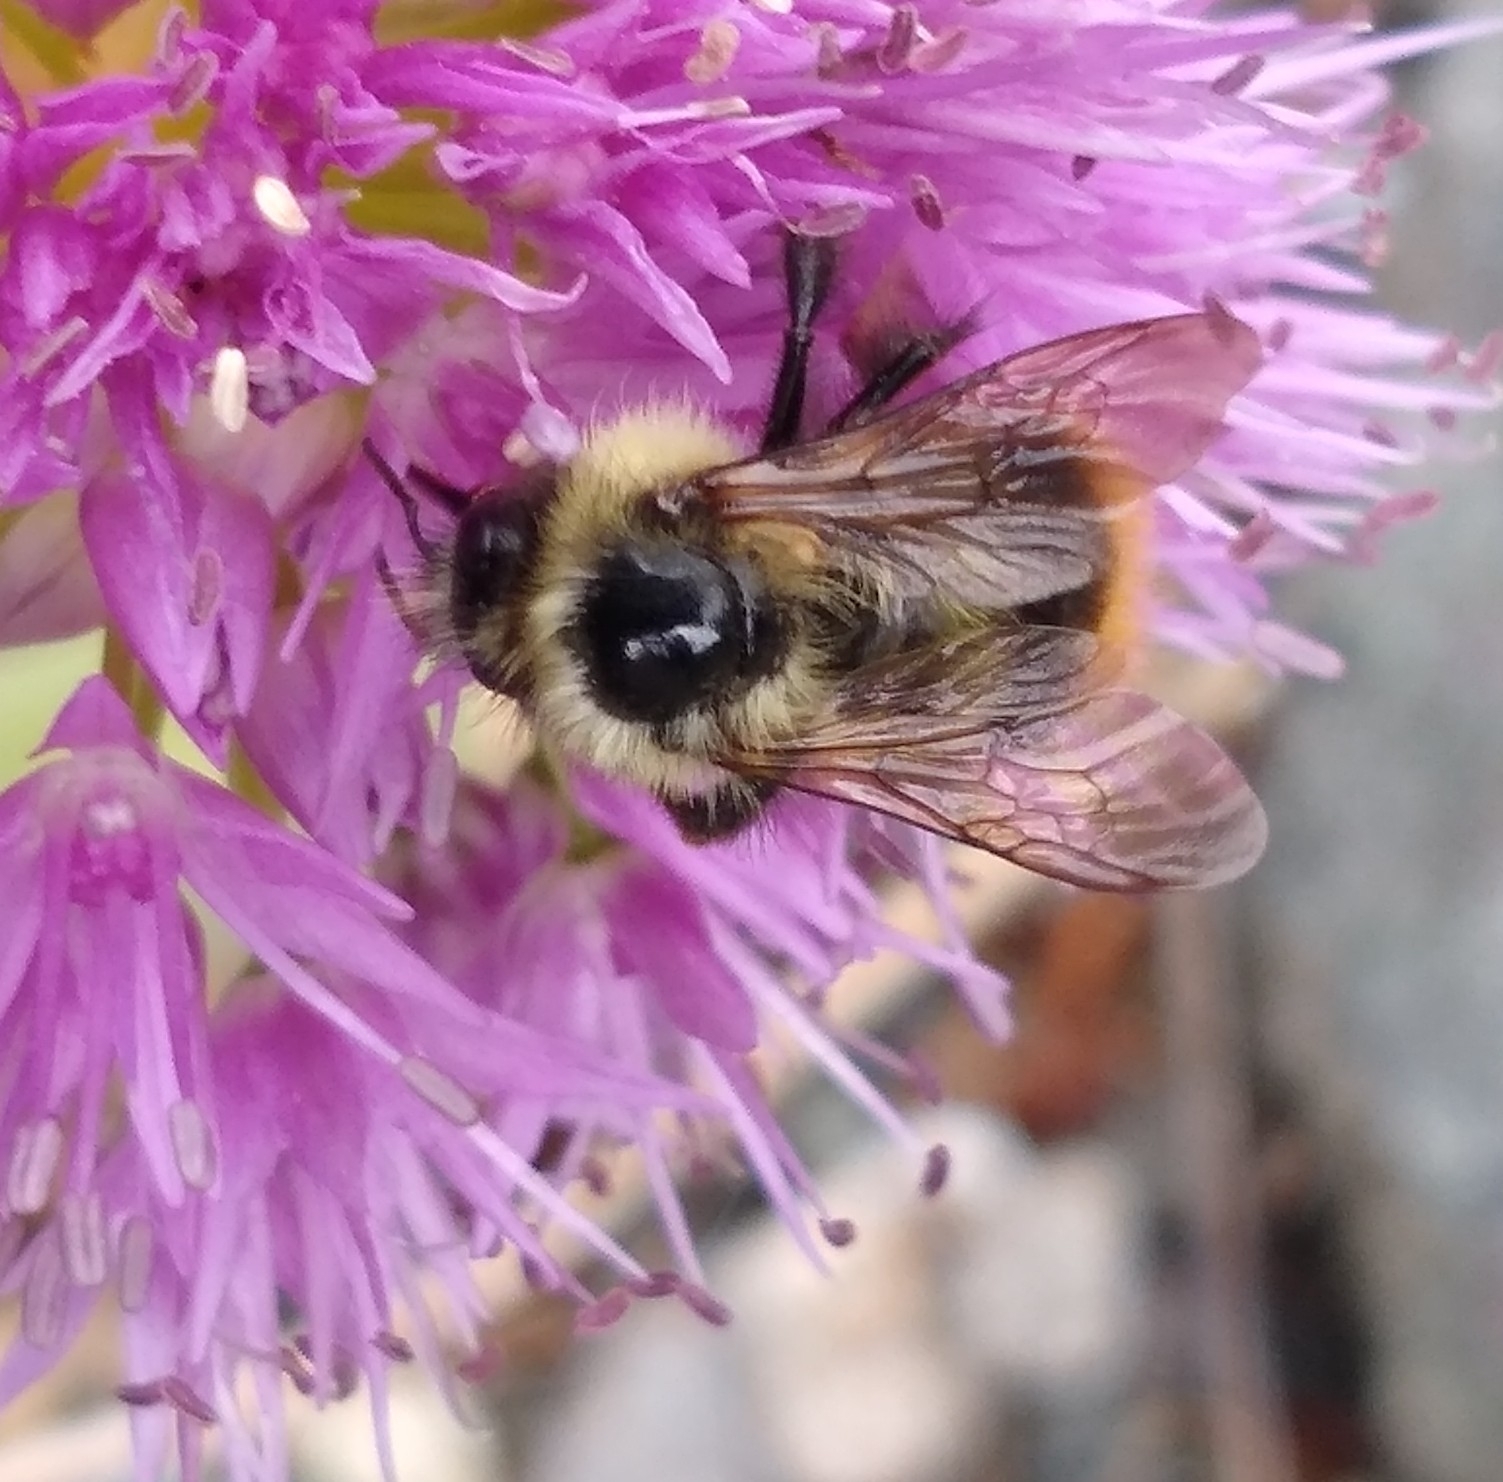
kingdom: Animalia
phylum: Arthropoda
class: Insecta
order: Hymenoptera
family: Apidae
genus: Bombus
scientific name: Bombus mixtus
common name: Fuzzy-horned bumble bee
